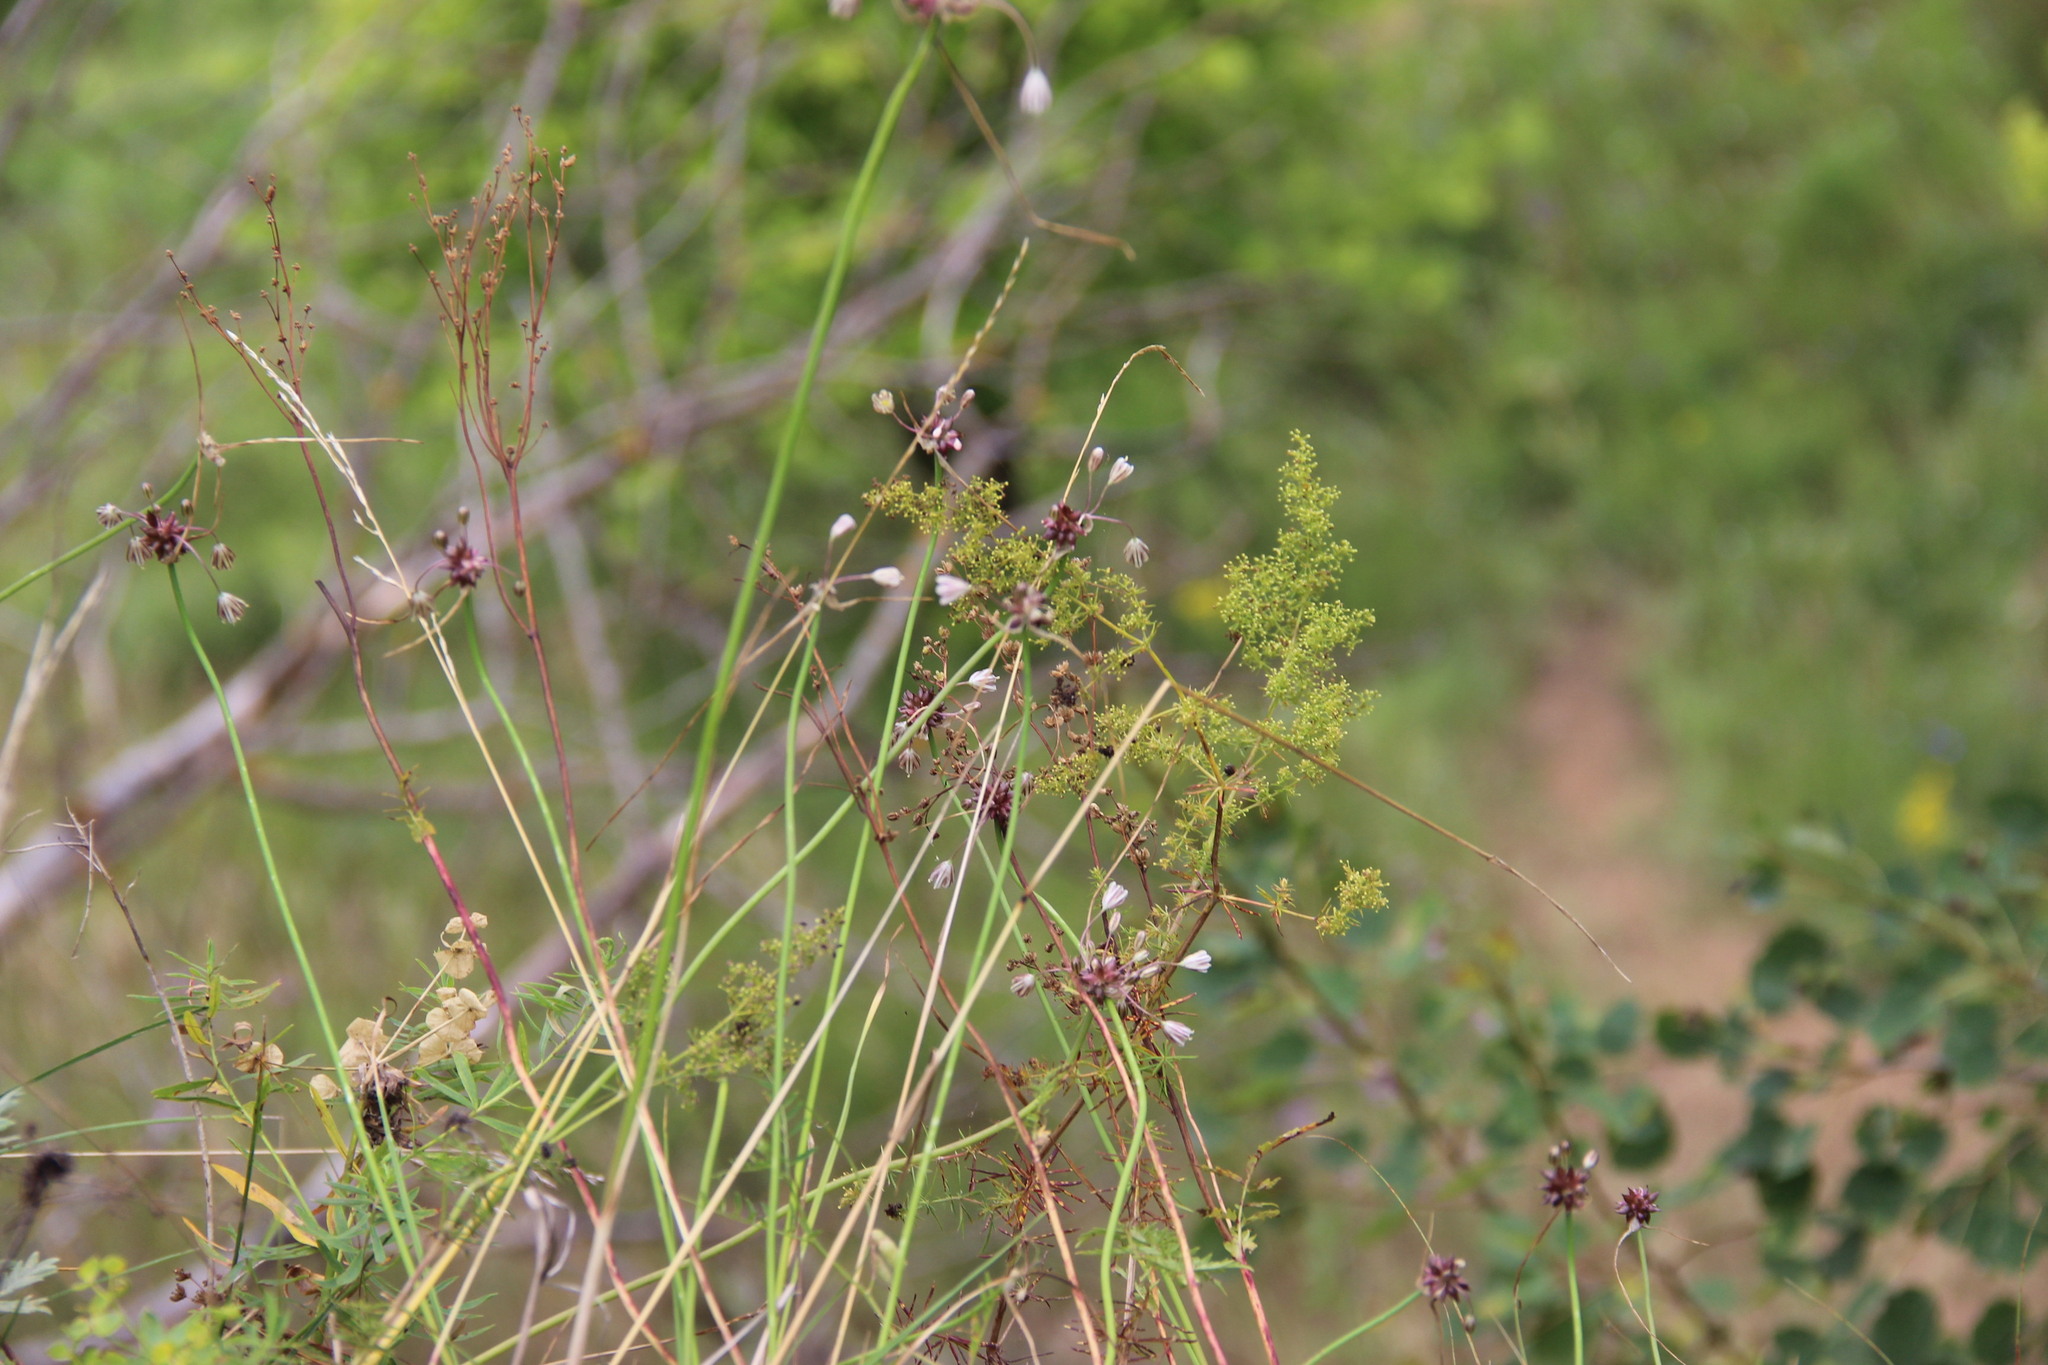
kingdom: Plantae
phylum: Tracheophyta
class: Liliopsida
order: Asparagales
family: Amaryllidaceae
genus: Allium
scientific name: Allium oleraceum
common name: Field garlic
